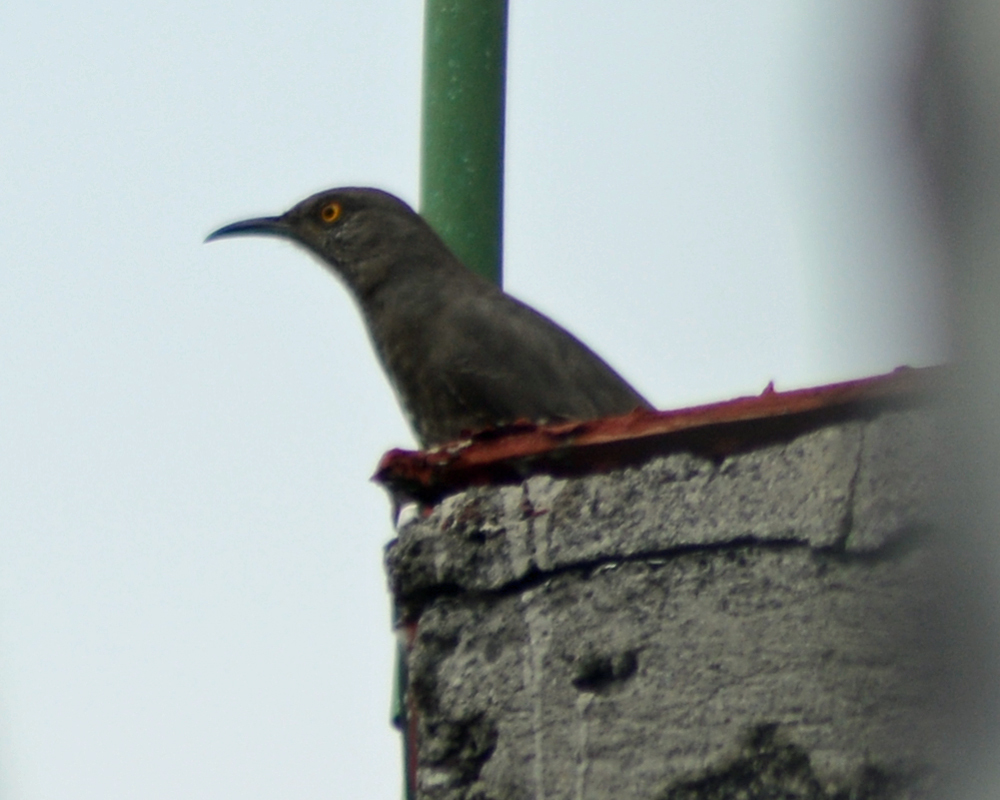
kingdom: Animalia
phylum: Chordata
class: Aves
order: Passeriformes
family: Mimidae
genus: Toxostoma
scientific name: Toxostoma curvirostre
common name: Curve-billed thrasher
